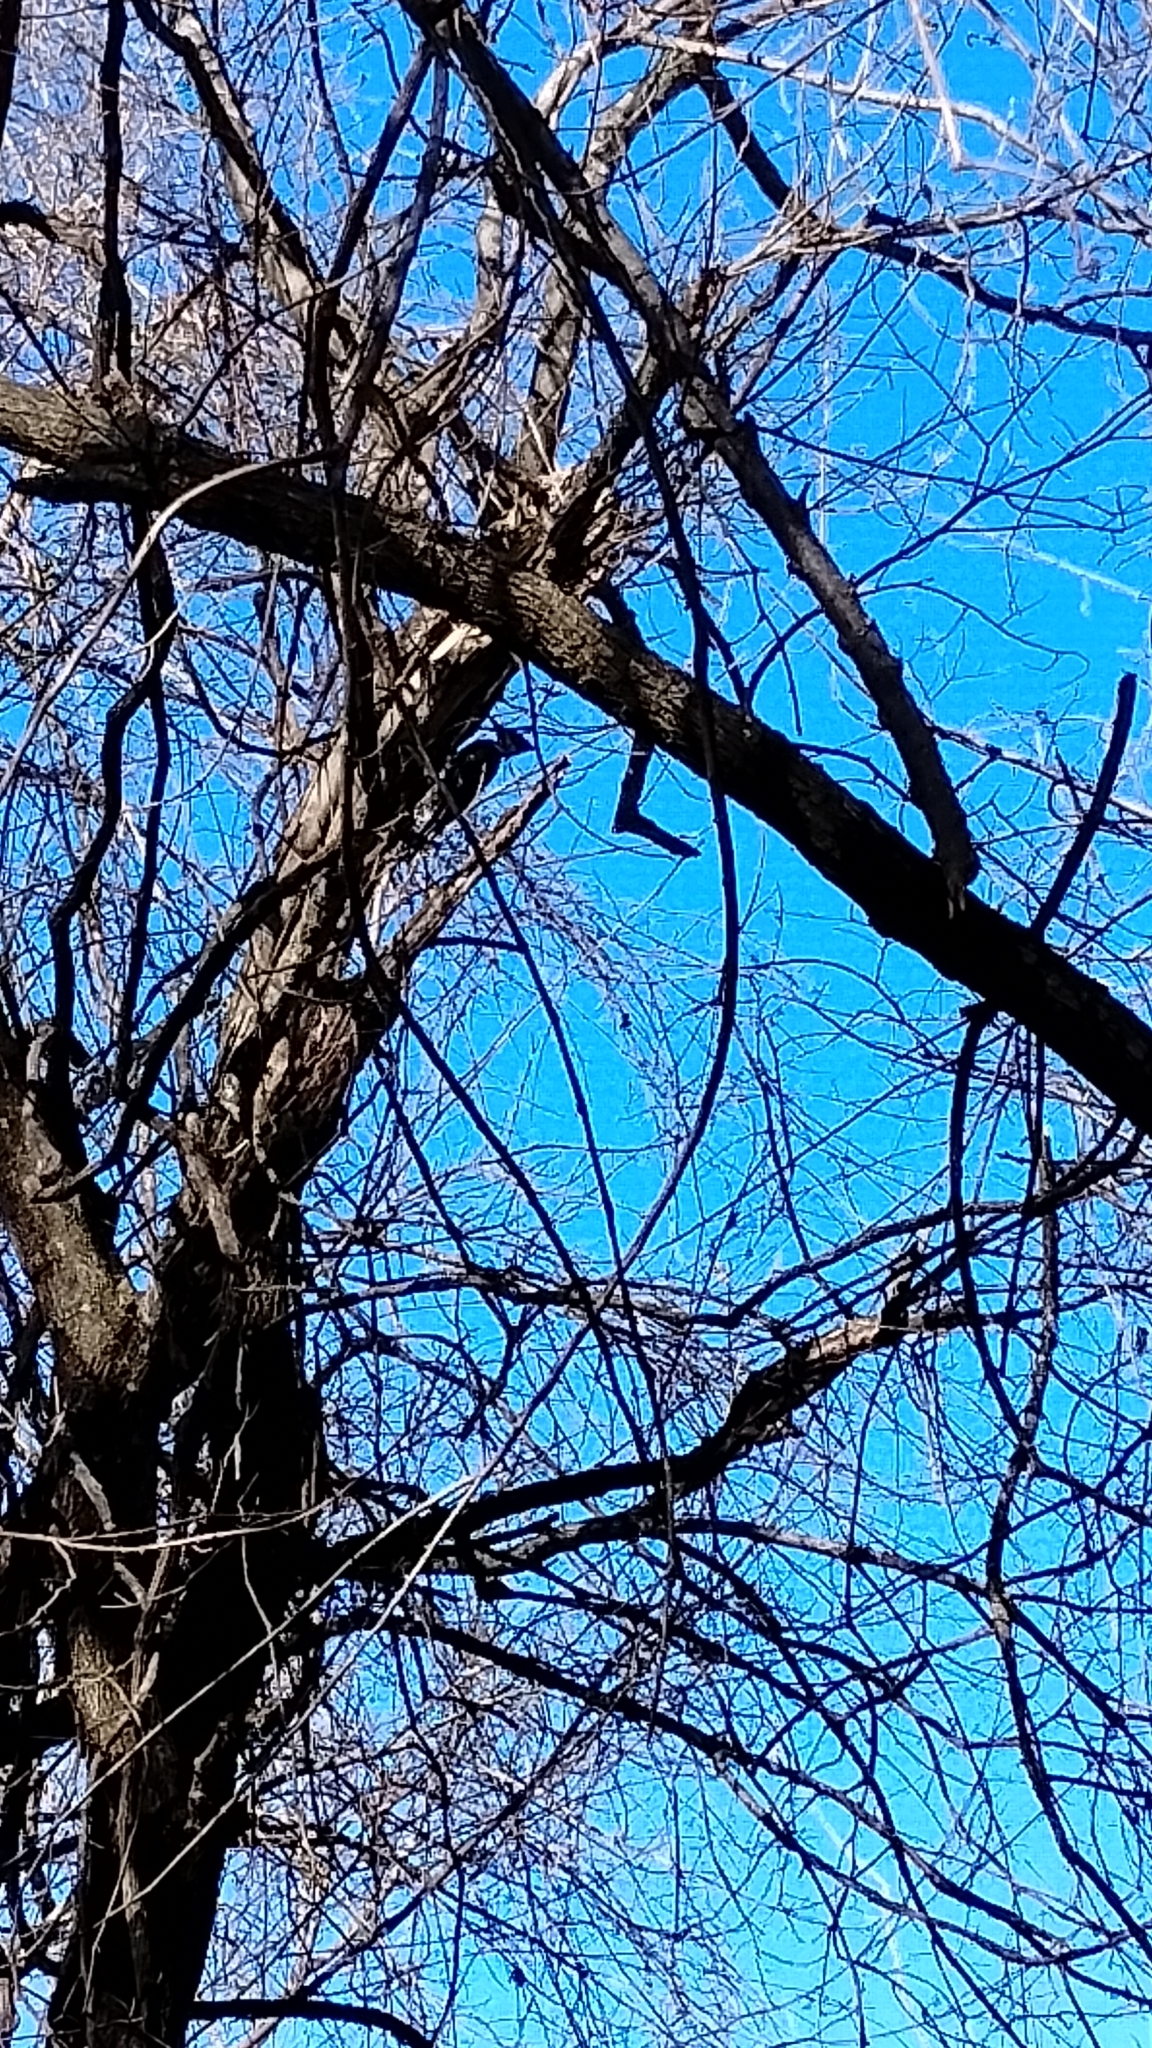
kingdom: Animalia
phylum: Chordata
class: Aves
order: Piciformes
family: Picidae
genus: Dryocopus
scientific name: Dryocopus pileatus
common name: Pileated woodpecker
